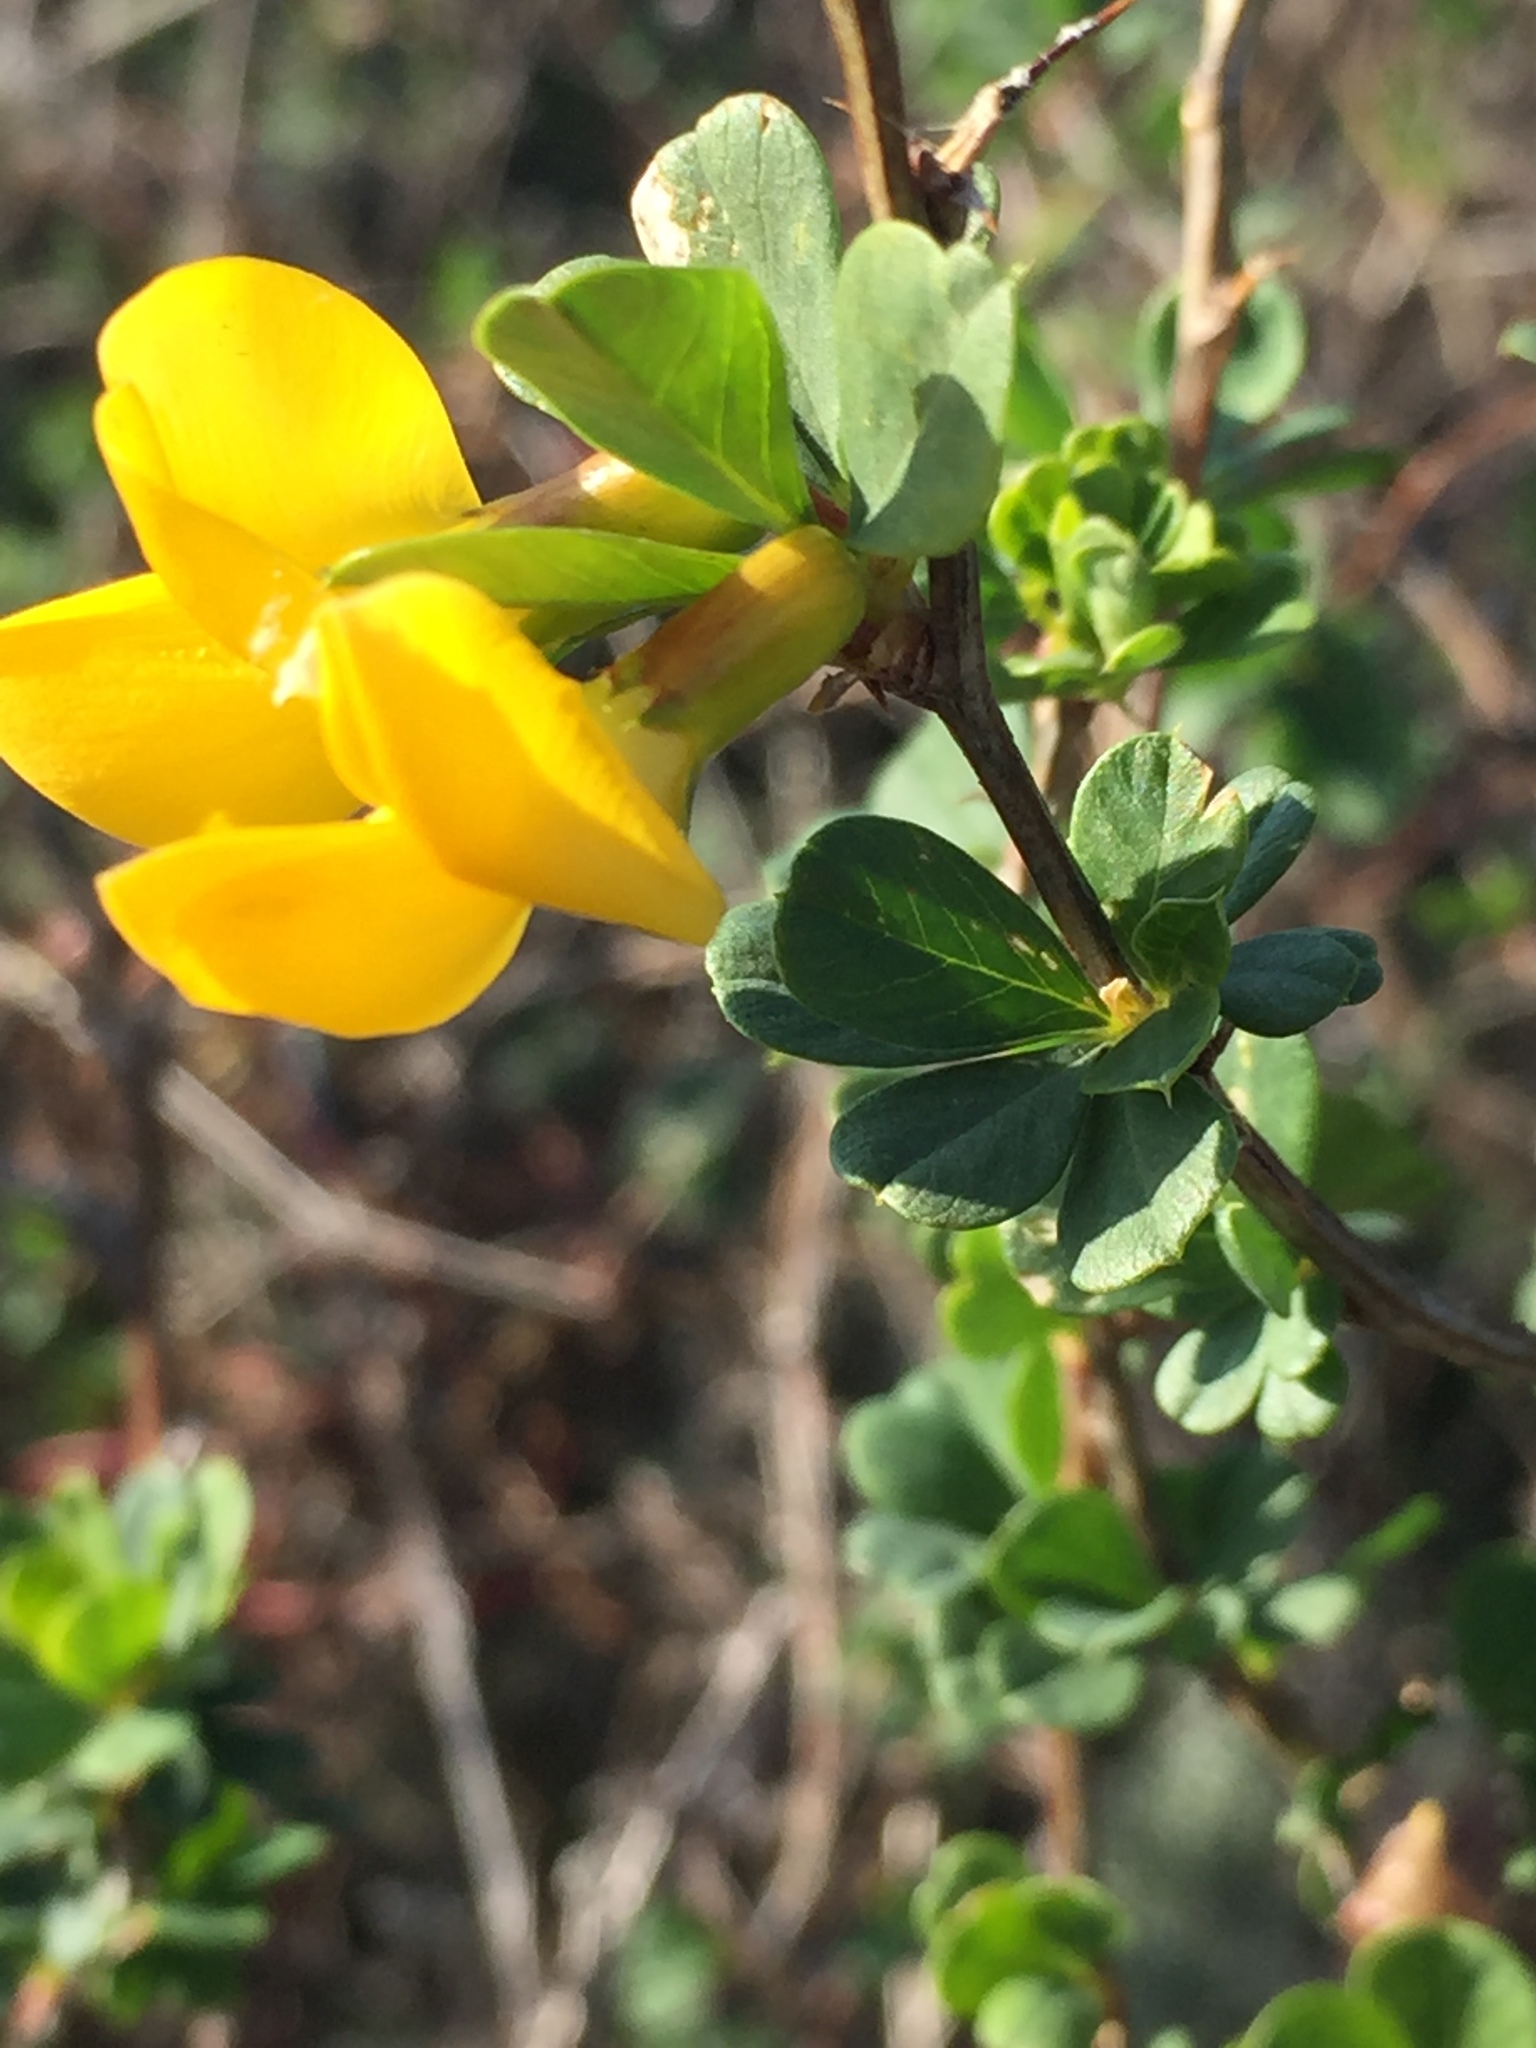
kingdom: Plantae
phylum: Tracheophyta
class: Magnoliopsida
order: Fabales
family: Fabaceae
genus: Caragana
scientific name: Caragana frutex
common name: Russian peashrub
